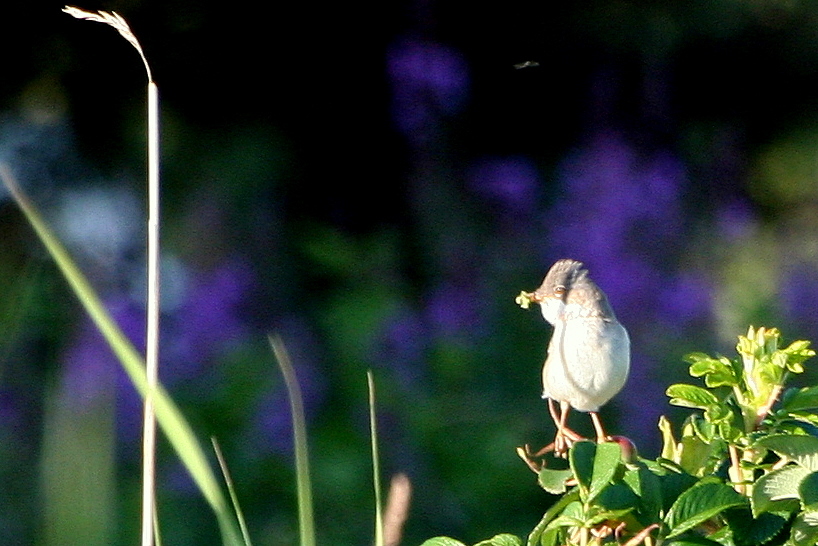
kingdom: Animalia
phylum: Chordata
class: Aves
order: Passeriformes
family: Sylviidae
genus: Sylvia
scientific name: Sylvia communis
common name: Common whitethroat
